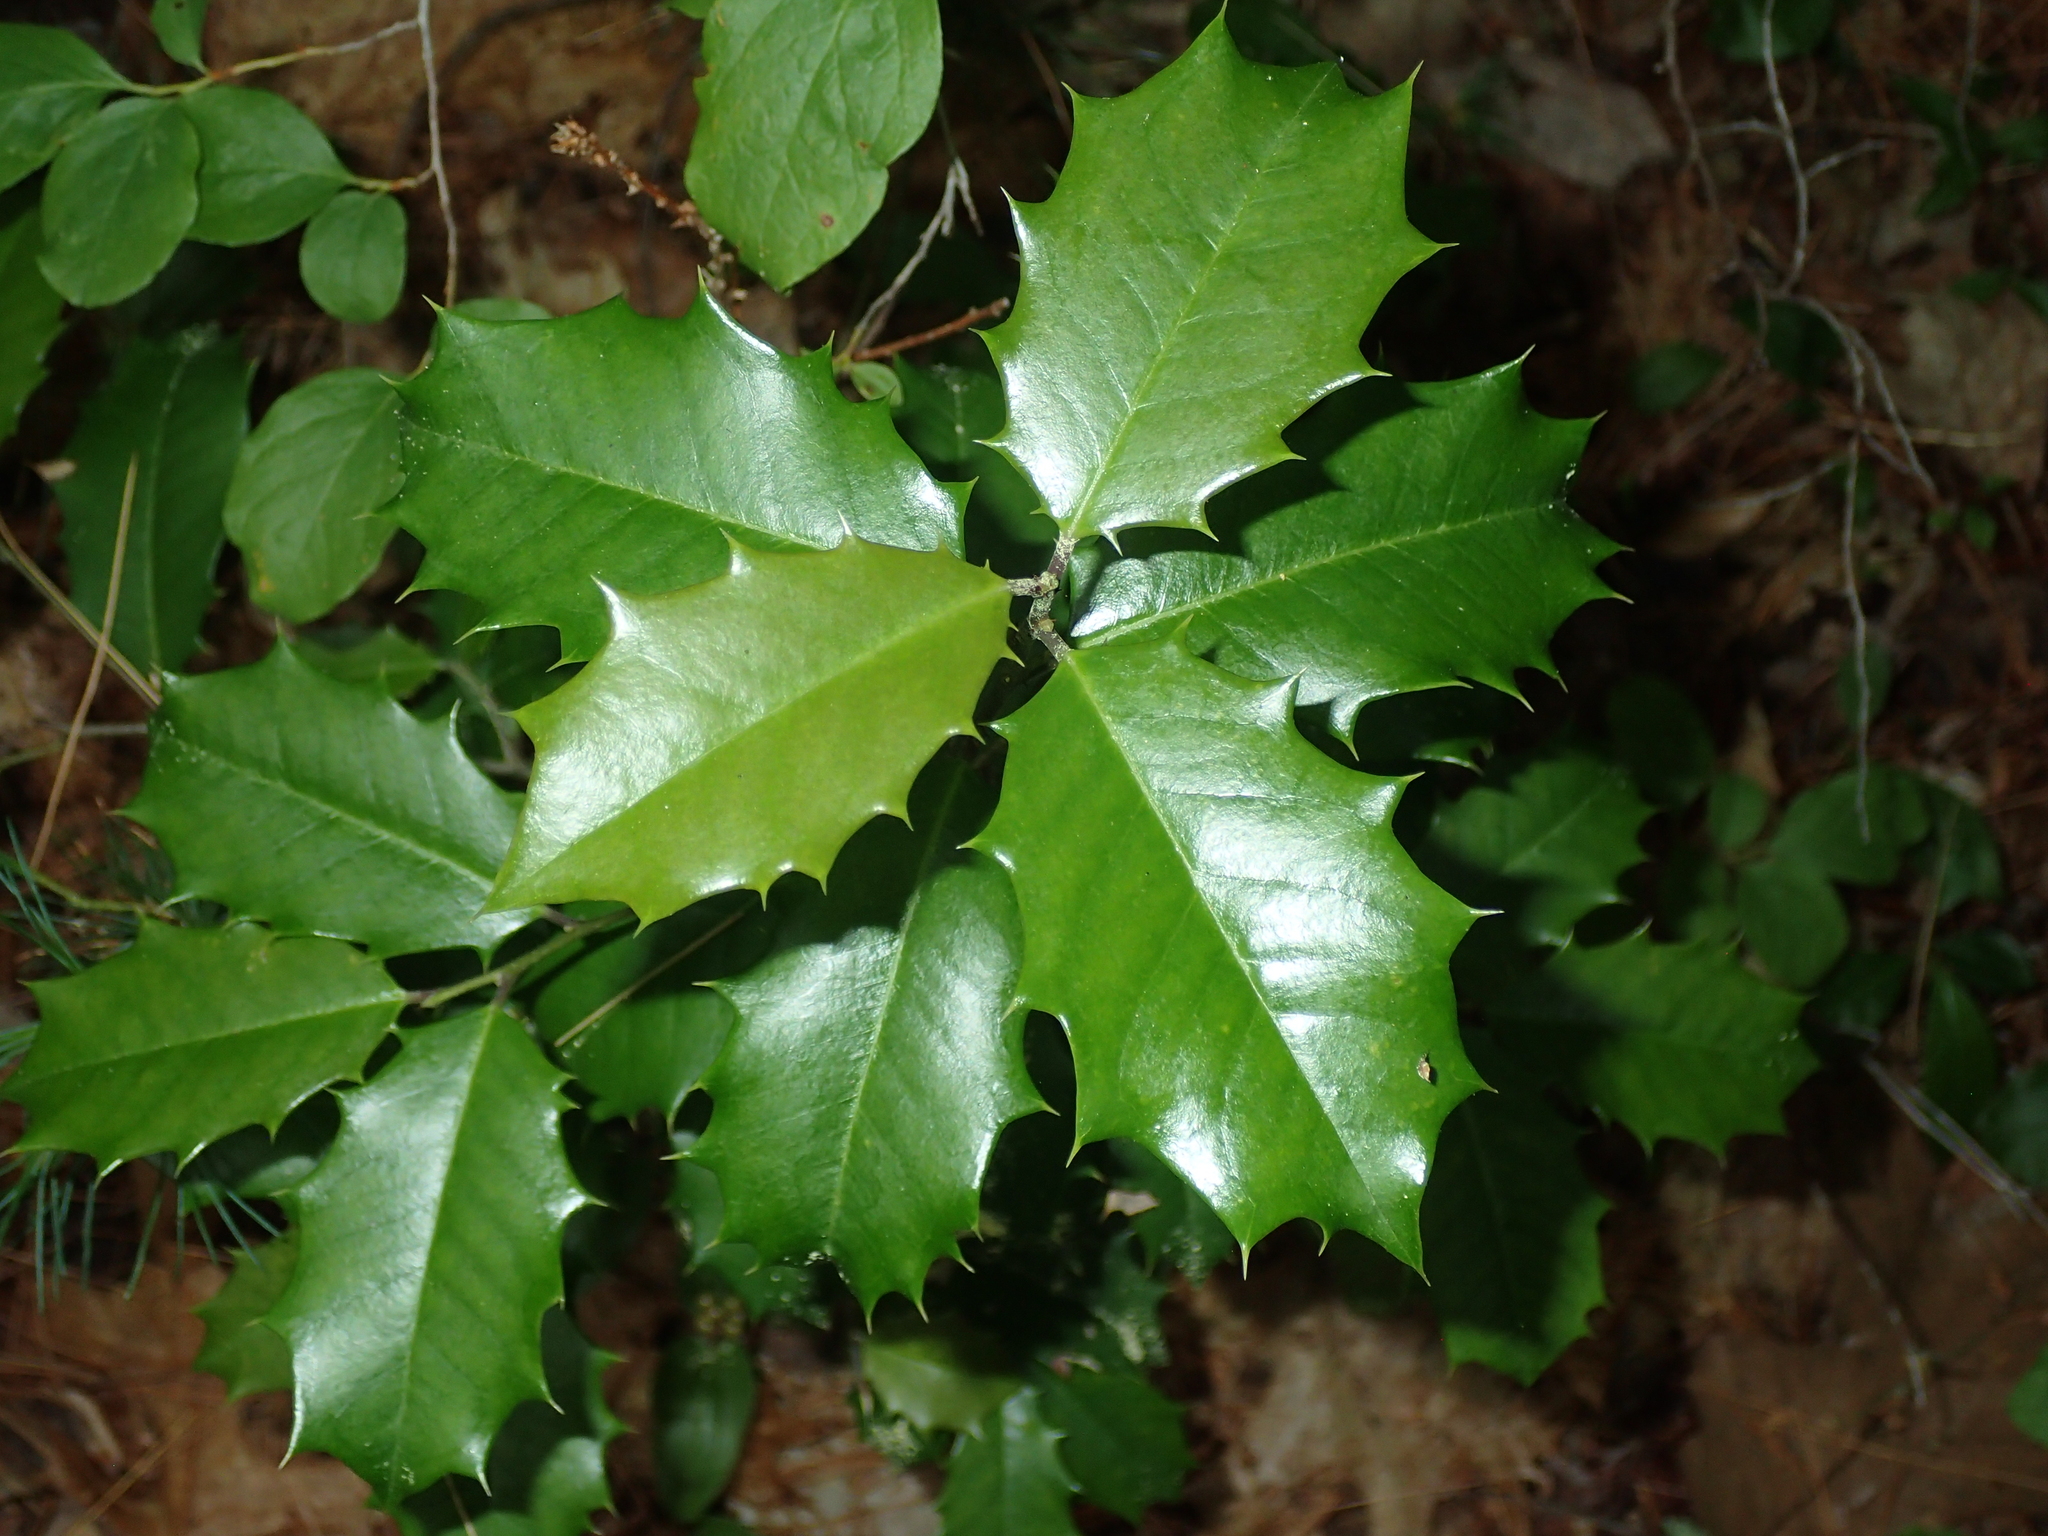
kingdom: Plantae
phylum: Tracheophyta
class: Magnoliopsida
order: Aquifoliales
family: Aquifoliaceae
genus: Ilex
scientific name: Ilex opaca
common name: American holly
